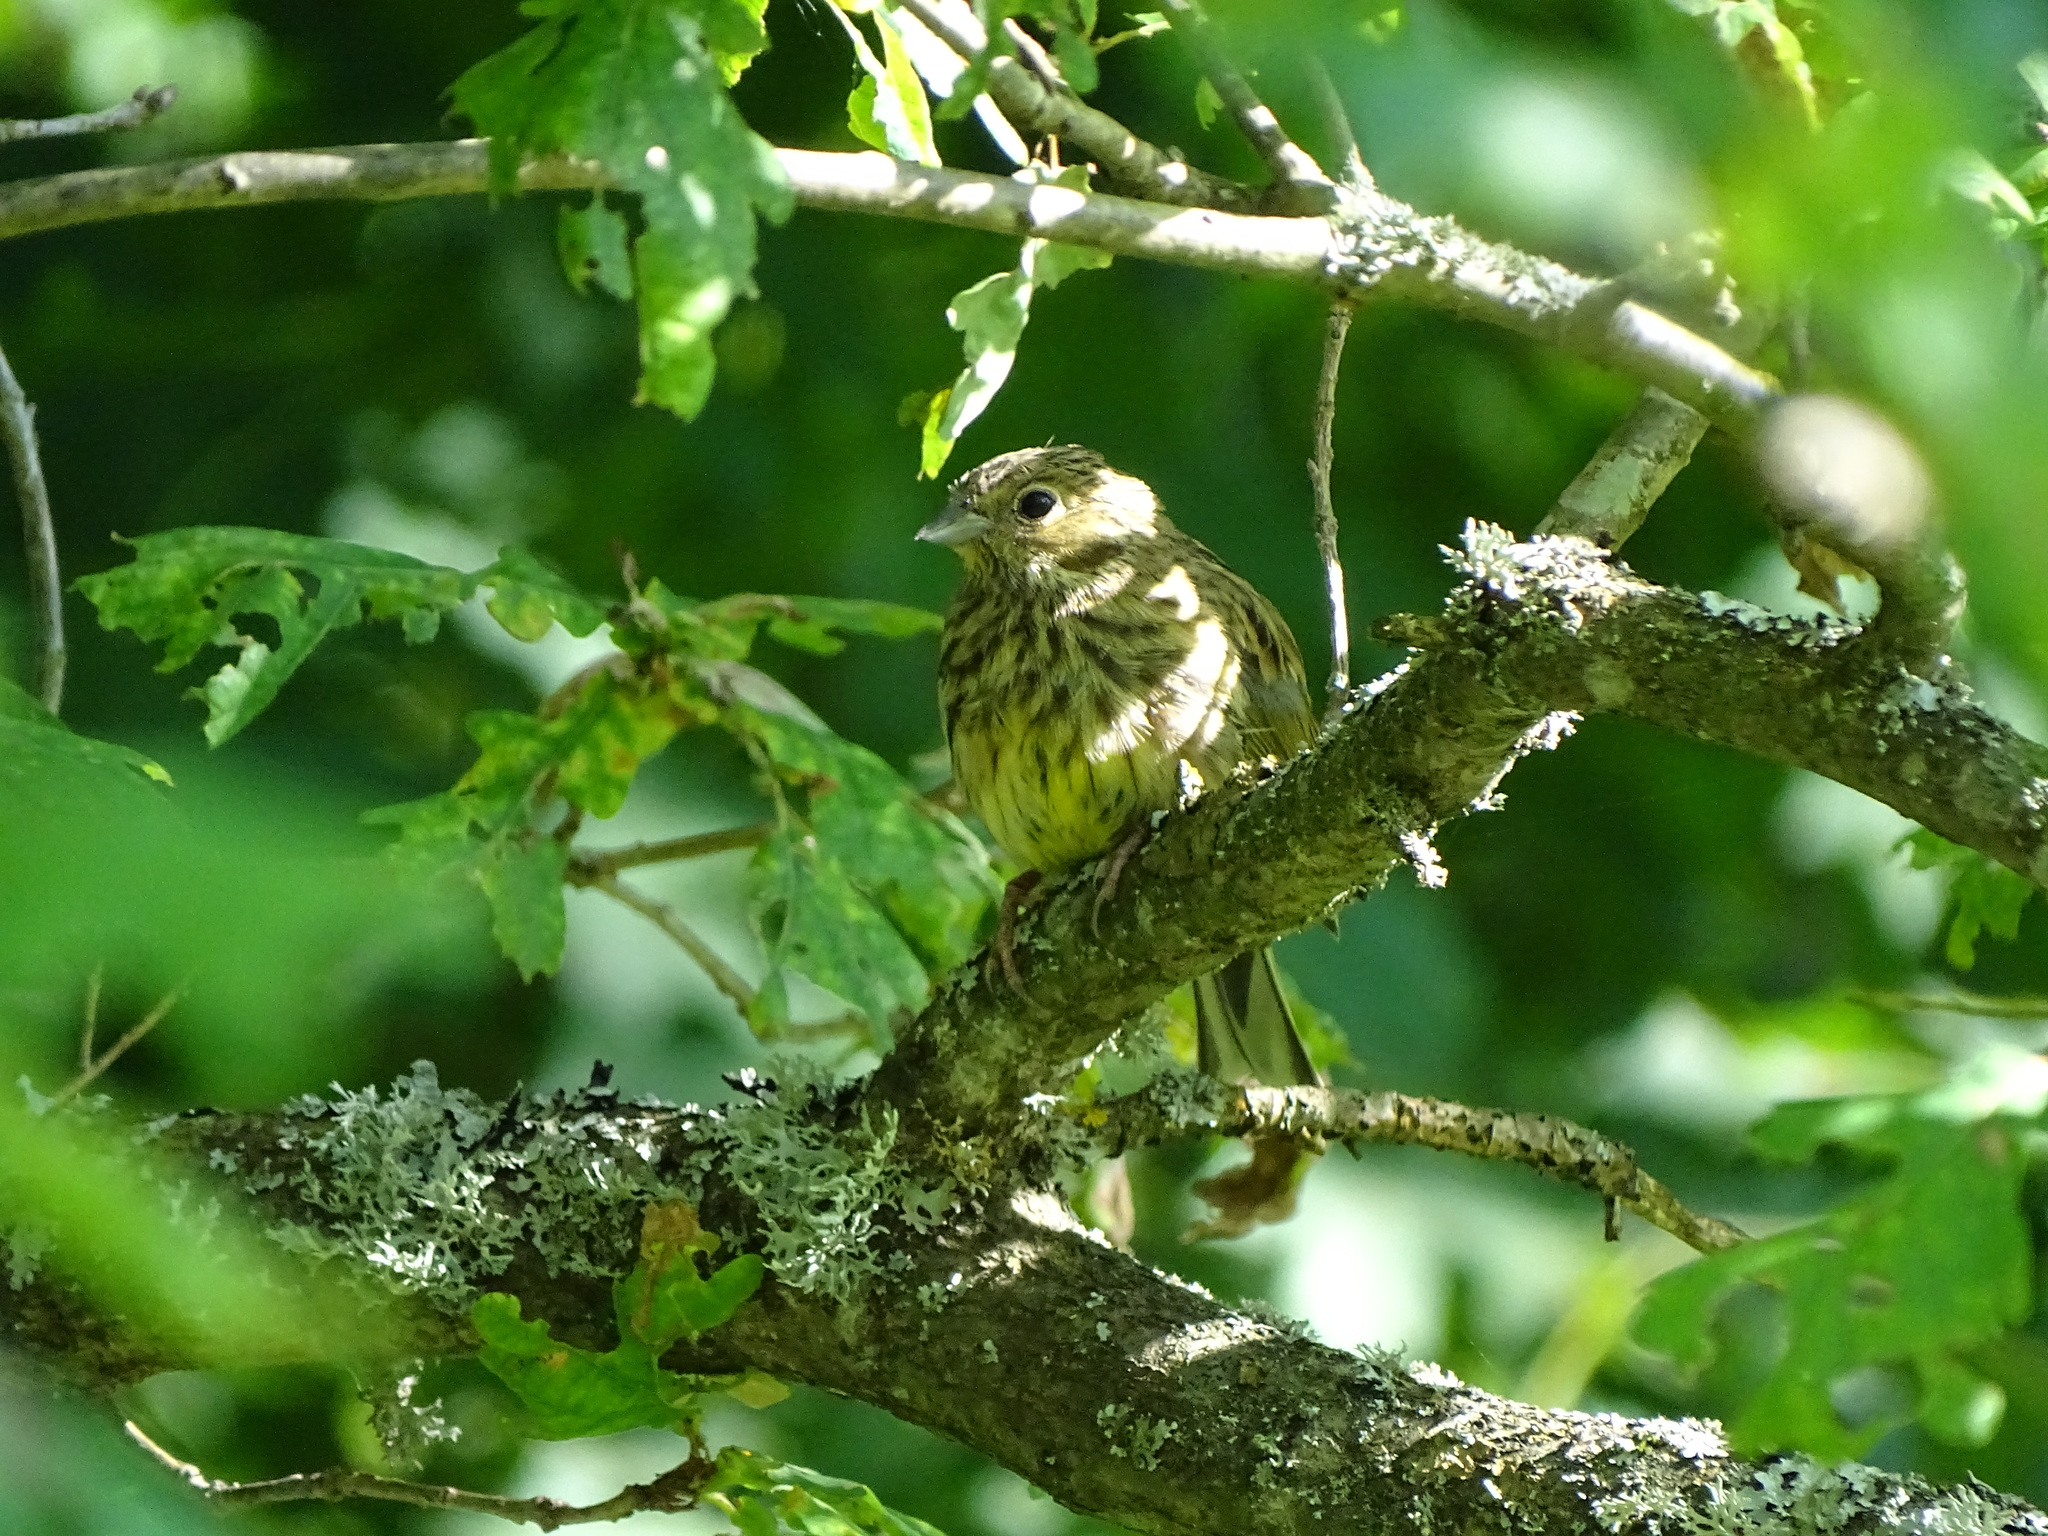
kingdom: Animalia
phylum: Chordata
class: Aves
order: Passeriformes
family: Emberizidae
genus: Emberiza
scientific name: Emberiza citrinella
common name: Yellowhammer
